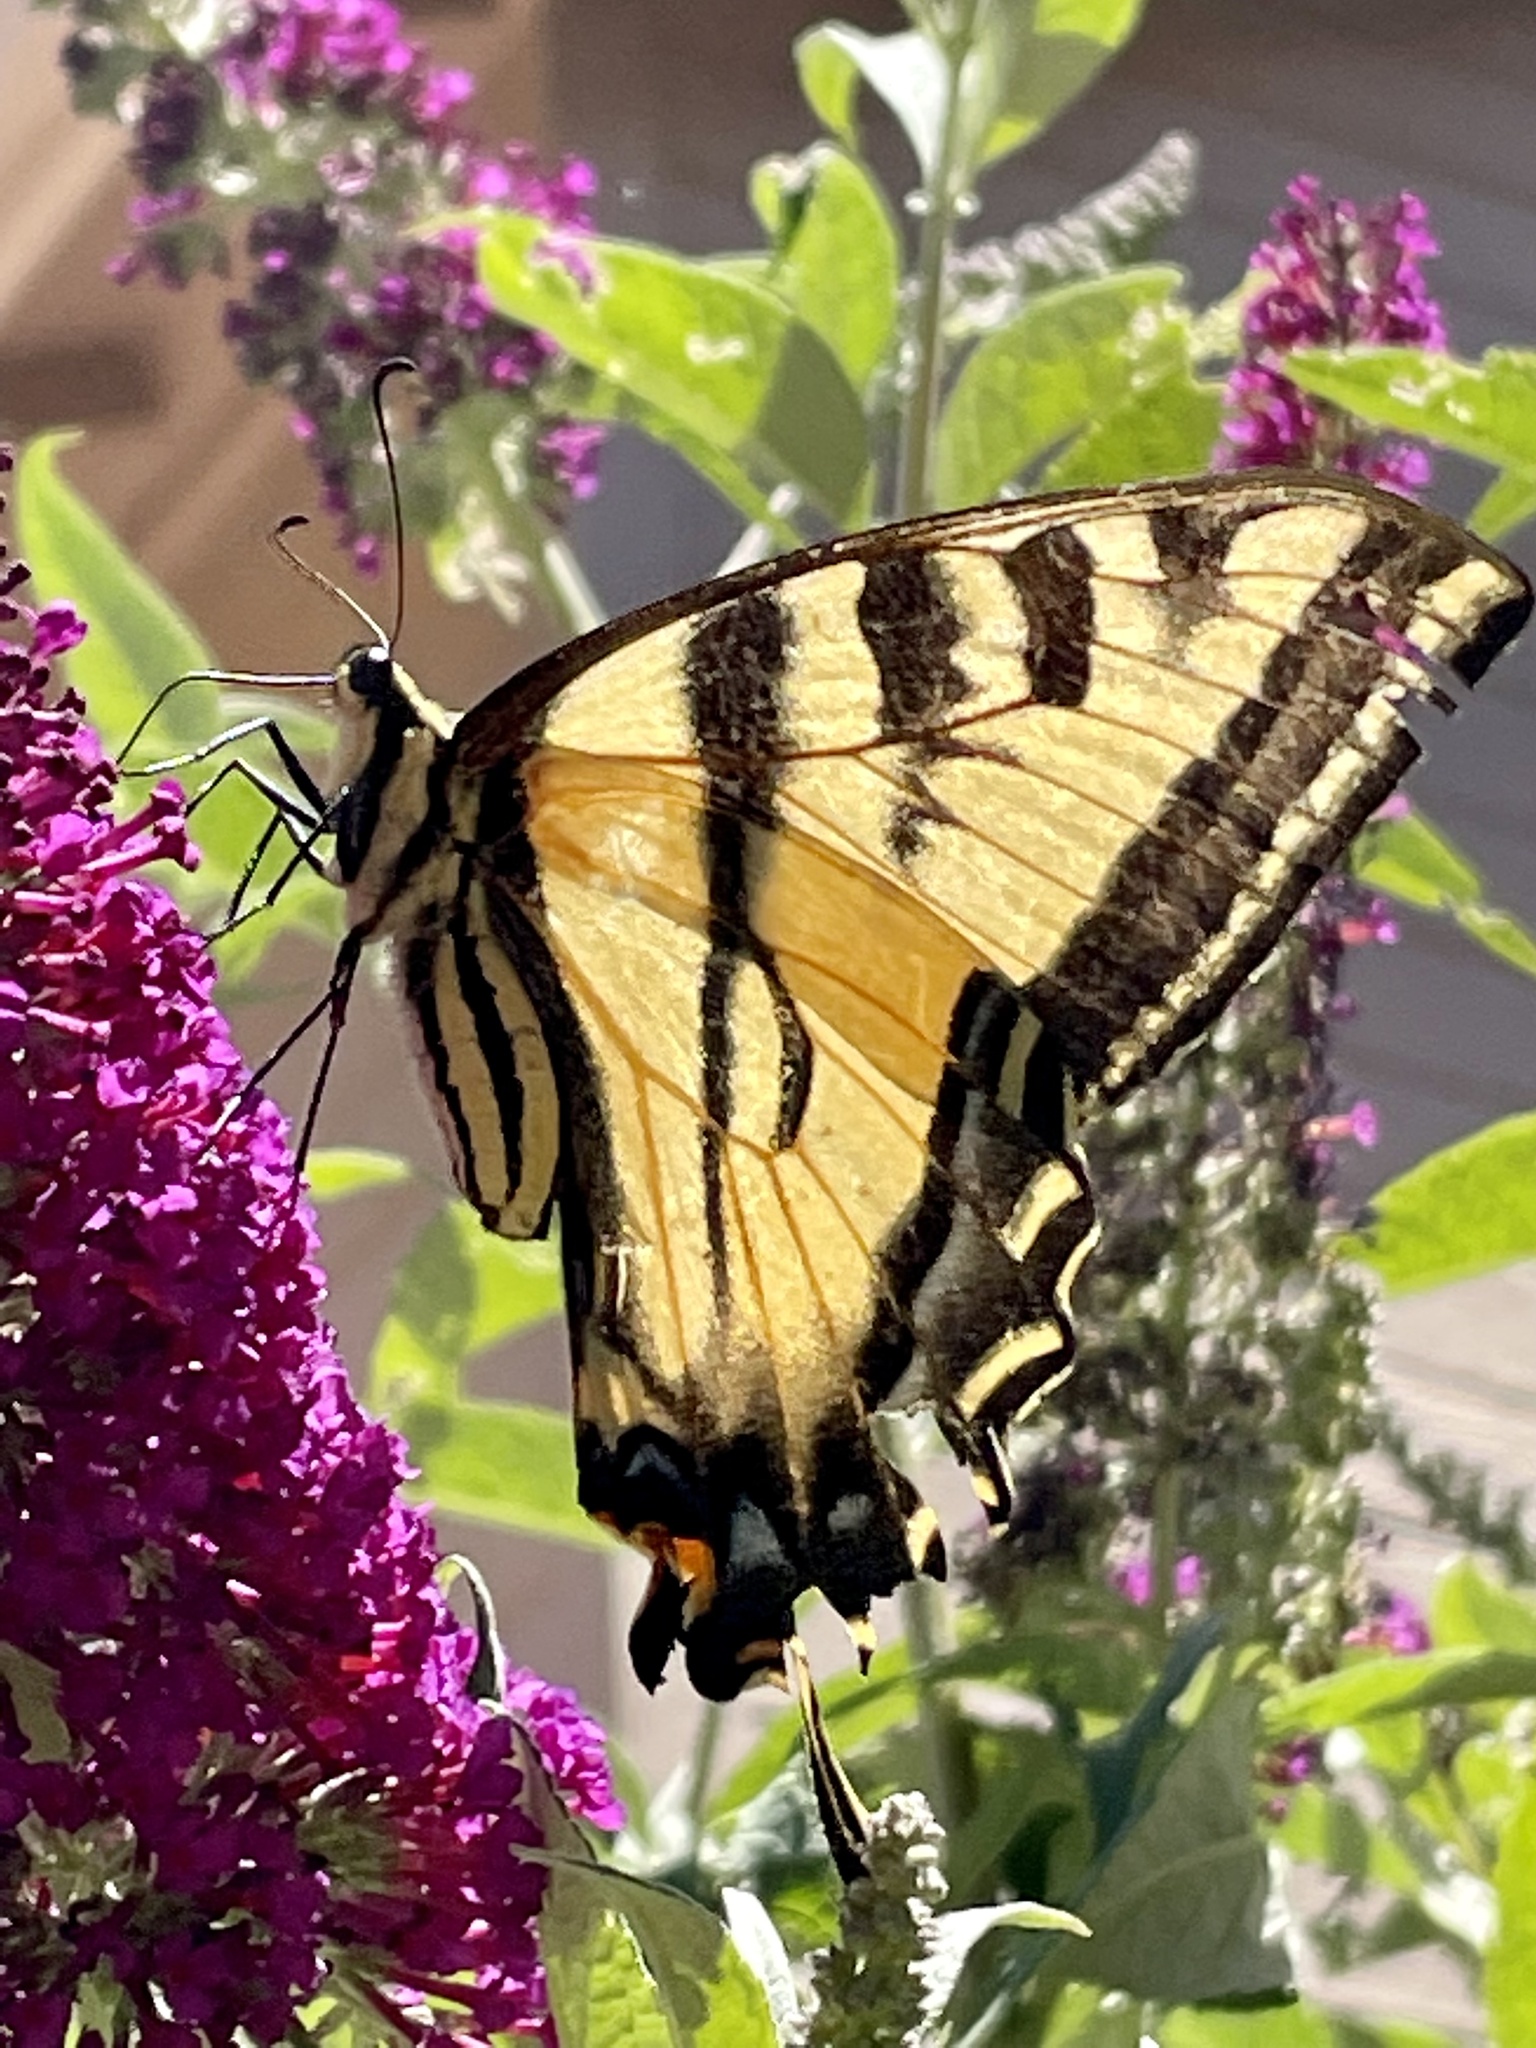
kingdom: Animalia
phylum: Arthropoda
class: Insecta
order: Lepidoptera
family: Papilionidae
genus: Papilio
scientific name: Papilio rutulus
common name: Western tiger swallowtail
